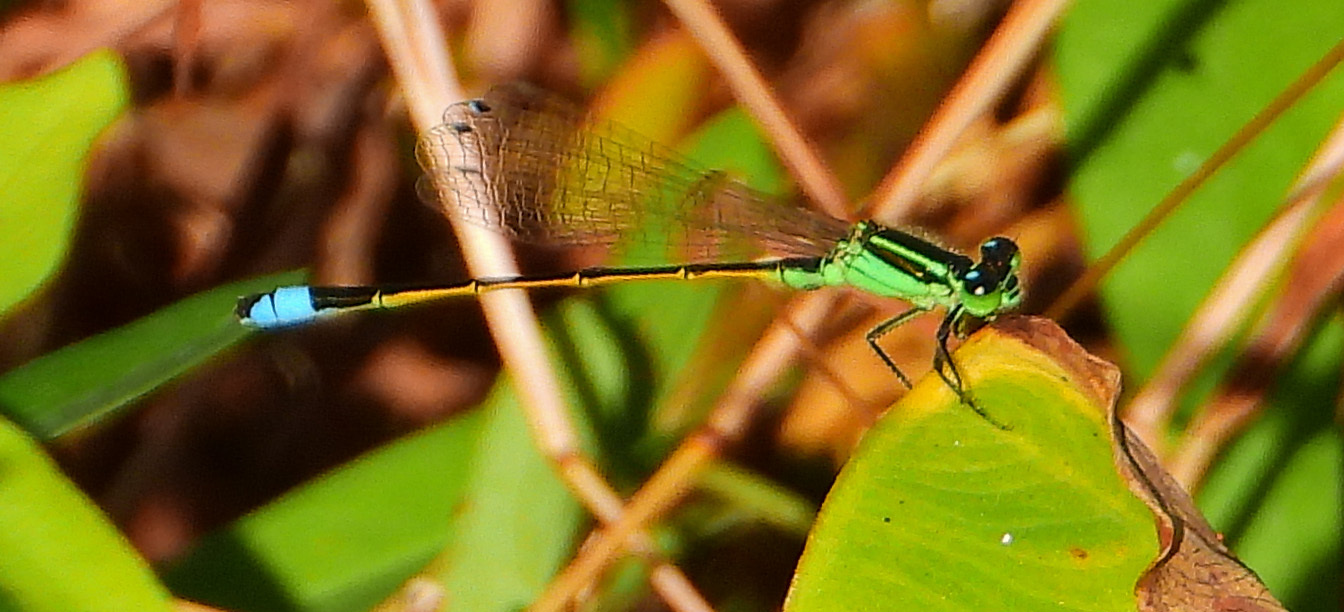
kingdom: Animalia
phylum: Arthropoda
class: Insecta
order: Odonata
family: Coenagrionidae
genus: Ischnura
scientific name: Ischnura ramburii
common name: Rambur's forktail
